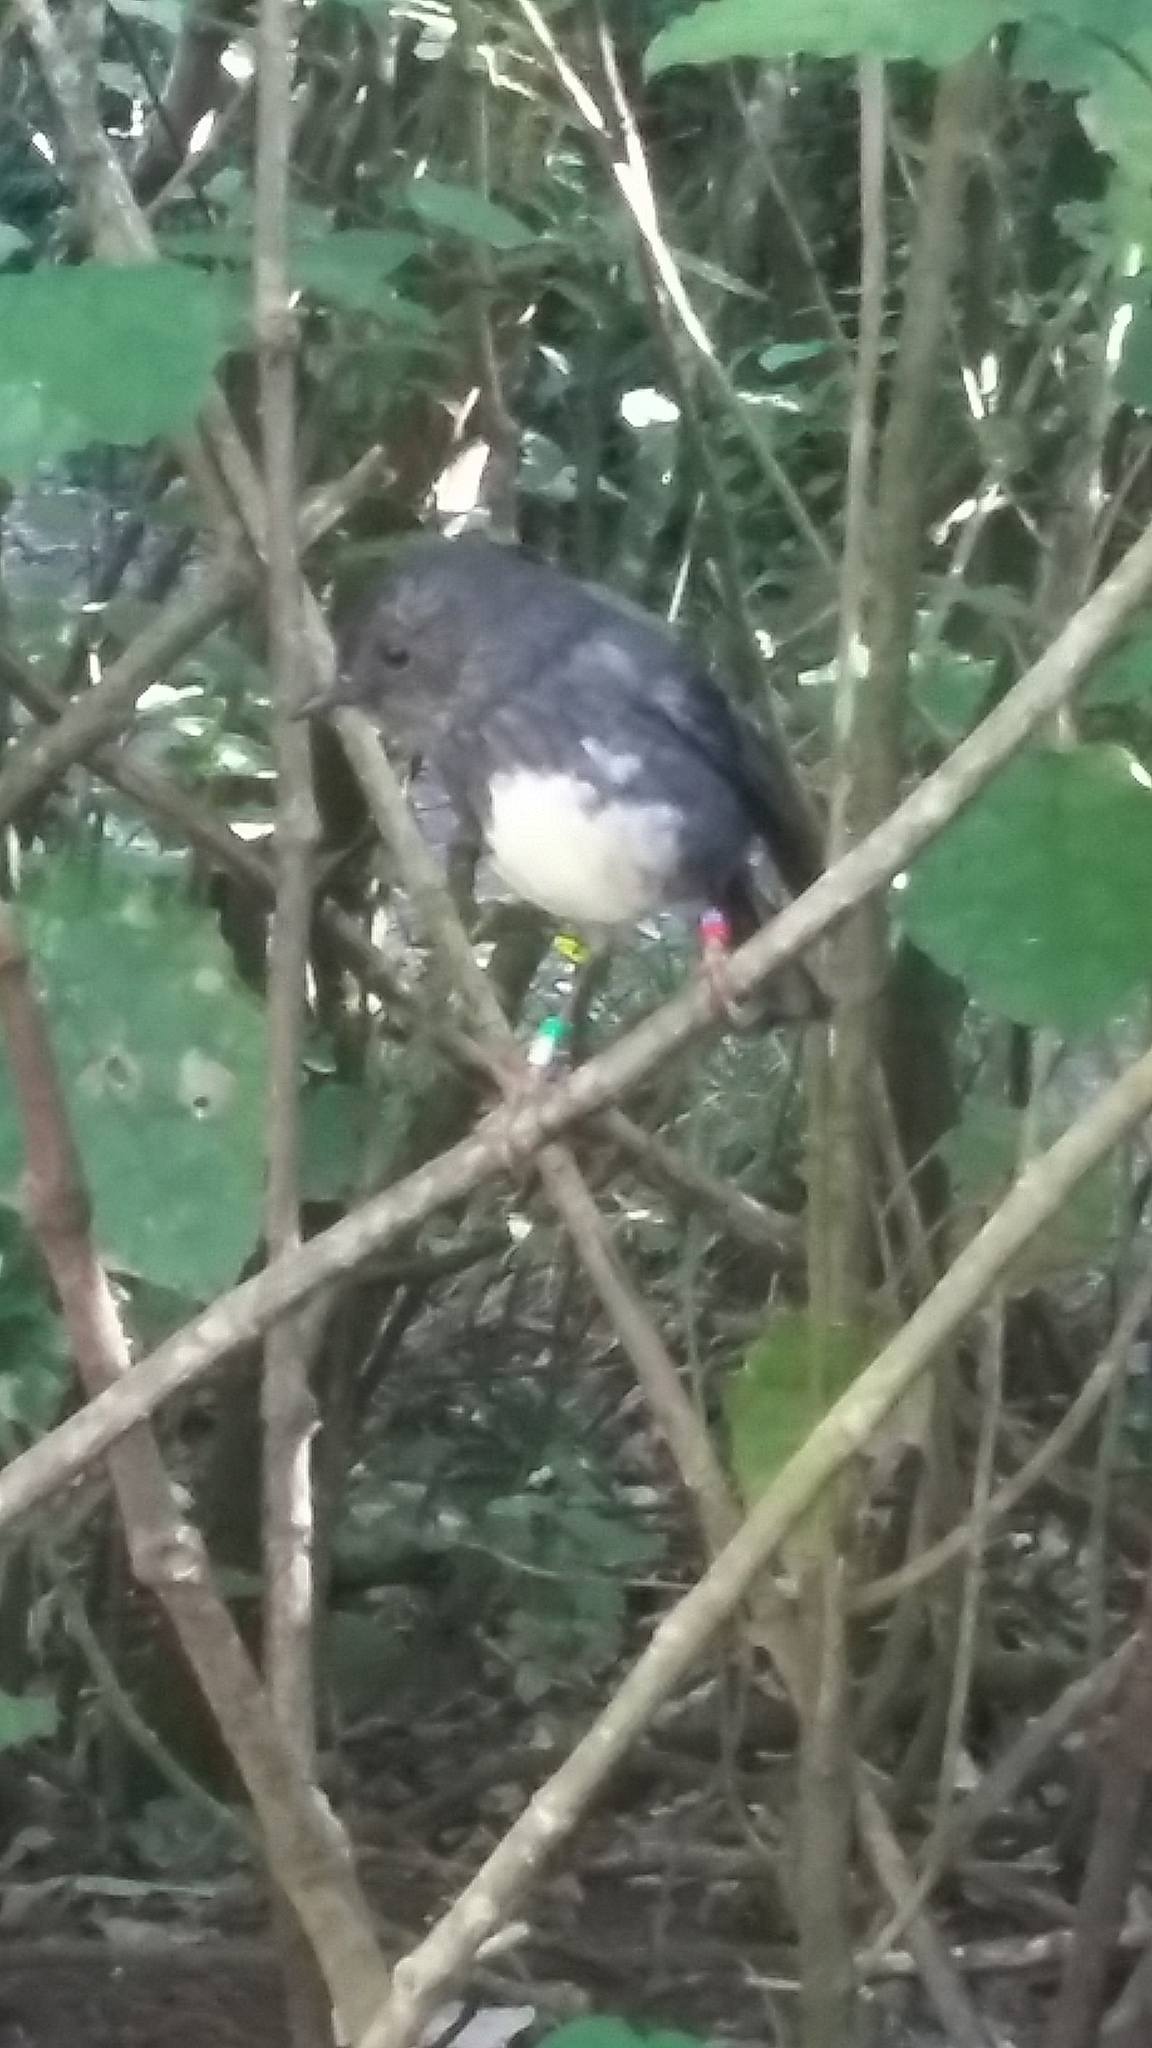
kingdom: Animalia
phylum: Chordata
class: Aves
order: Passeriformes
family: Petroicidae
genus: Petroica
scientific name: Petroica australis
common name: New zealand robin
